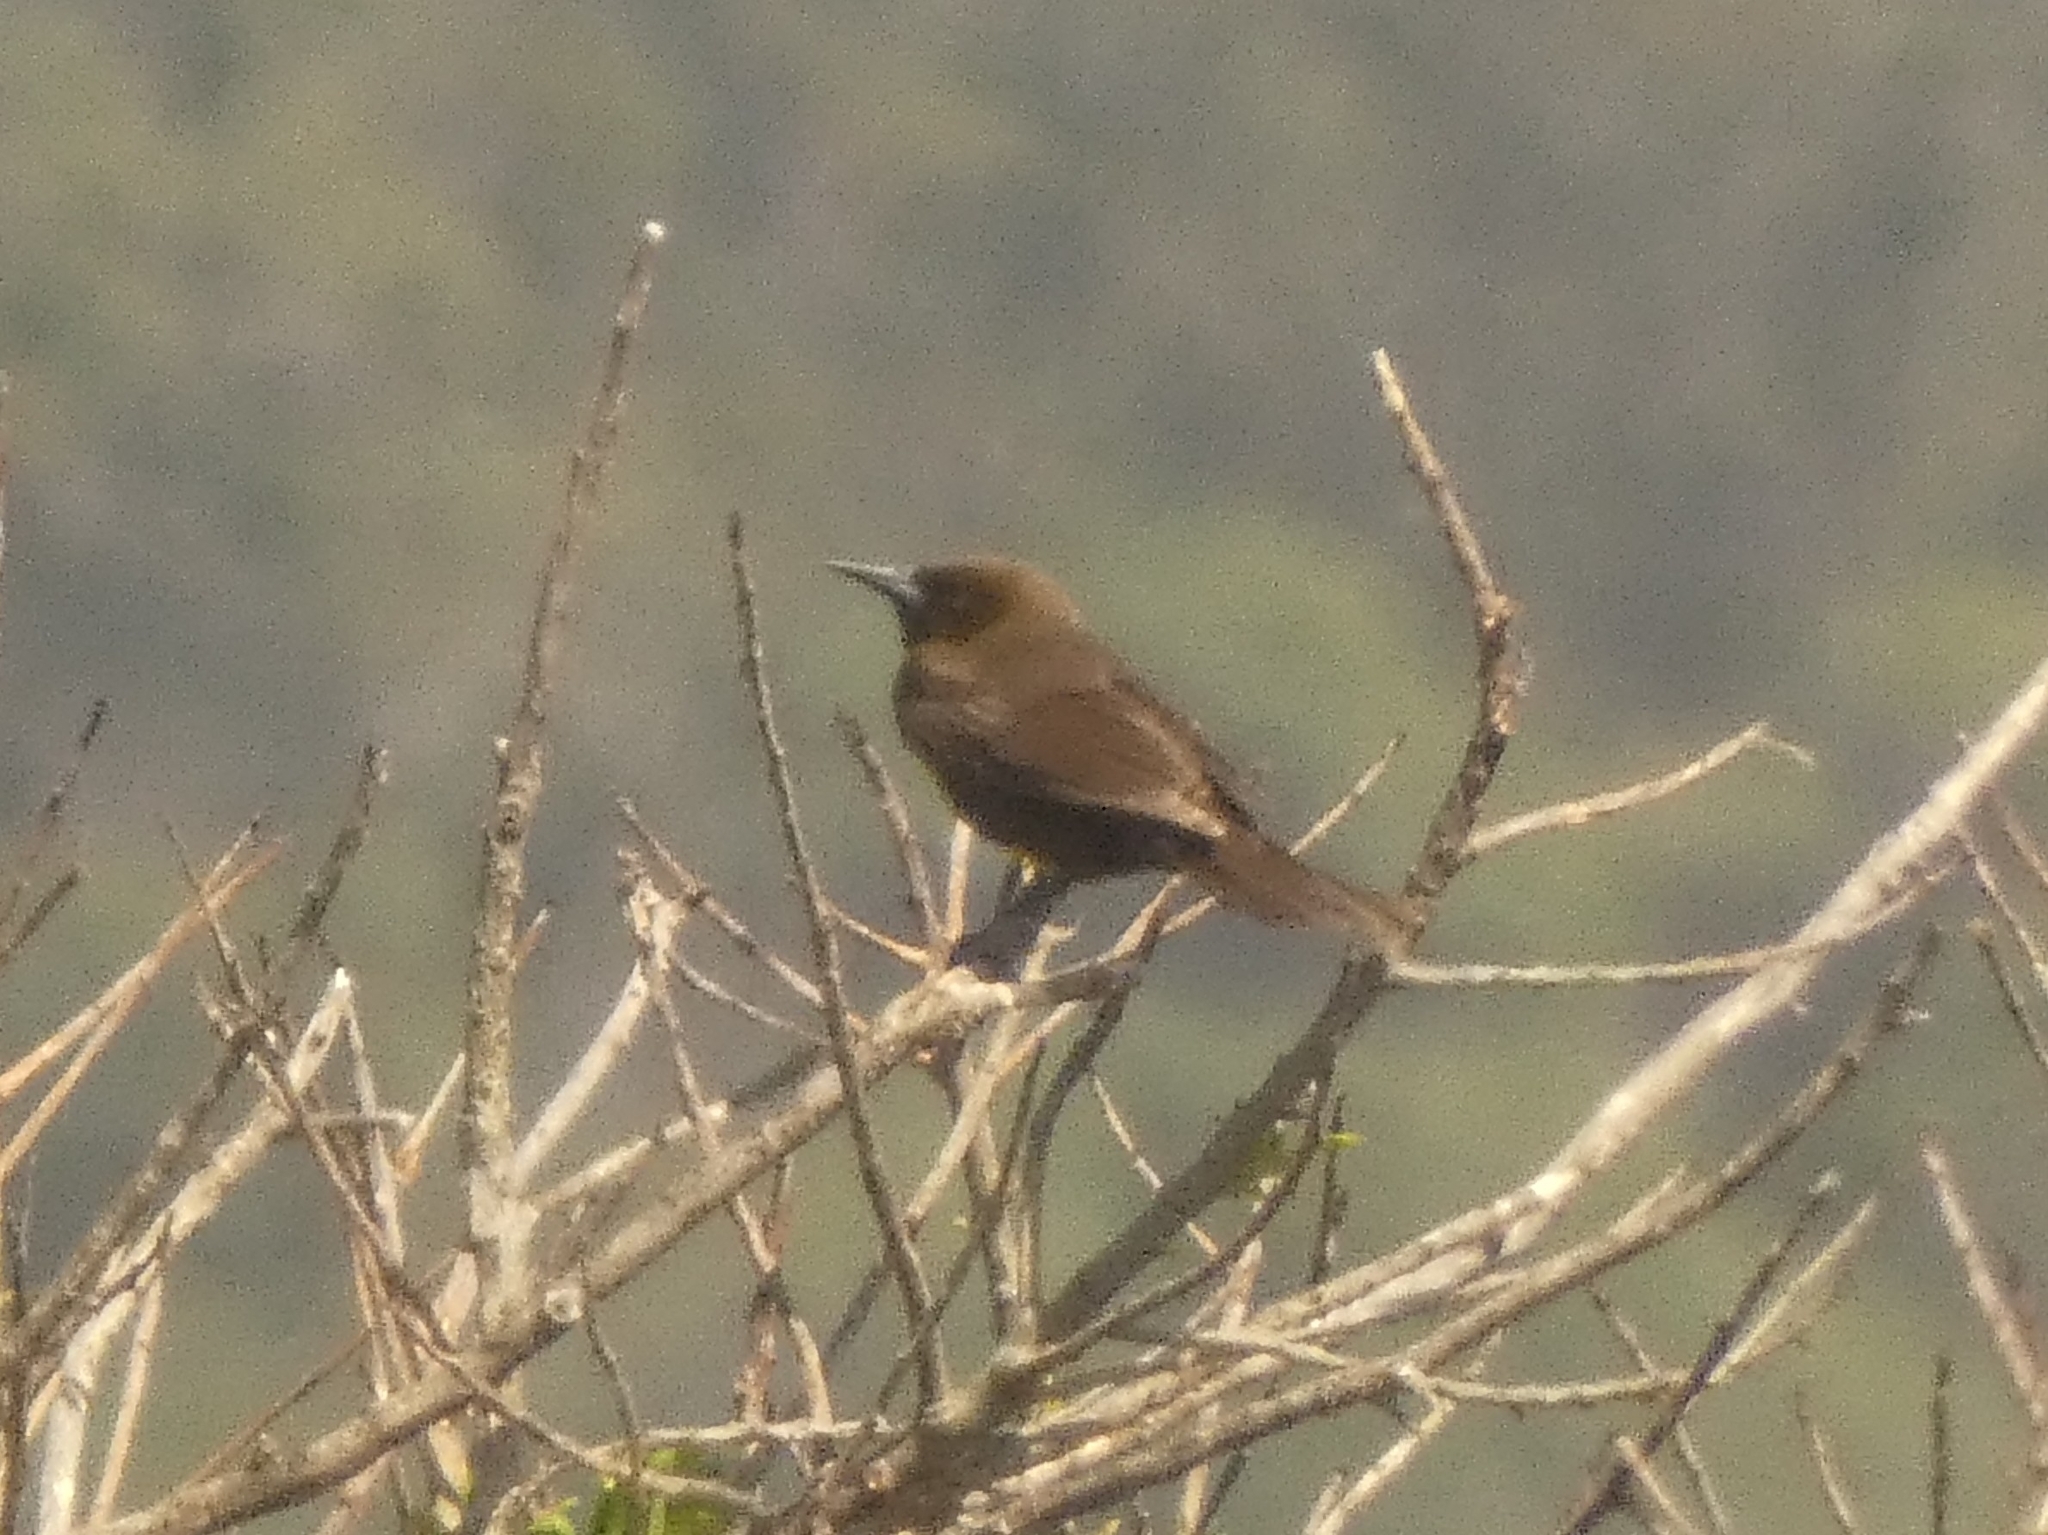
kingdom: Animalia
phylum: Chordata
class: Aves
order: Passeriformes
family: Icteridae
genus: Pseudoleistes
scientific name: Pseudoleistes virescens
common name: Brown-and-yellow marshbird
